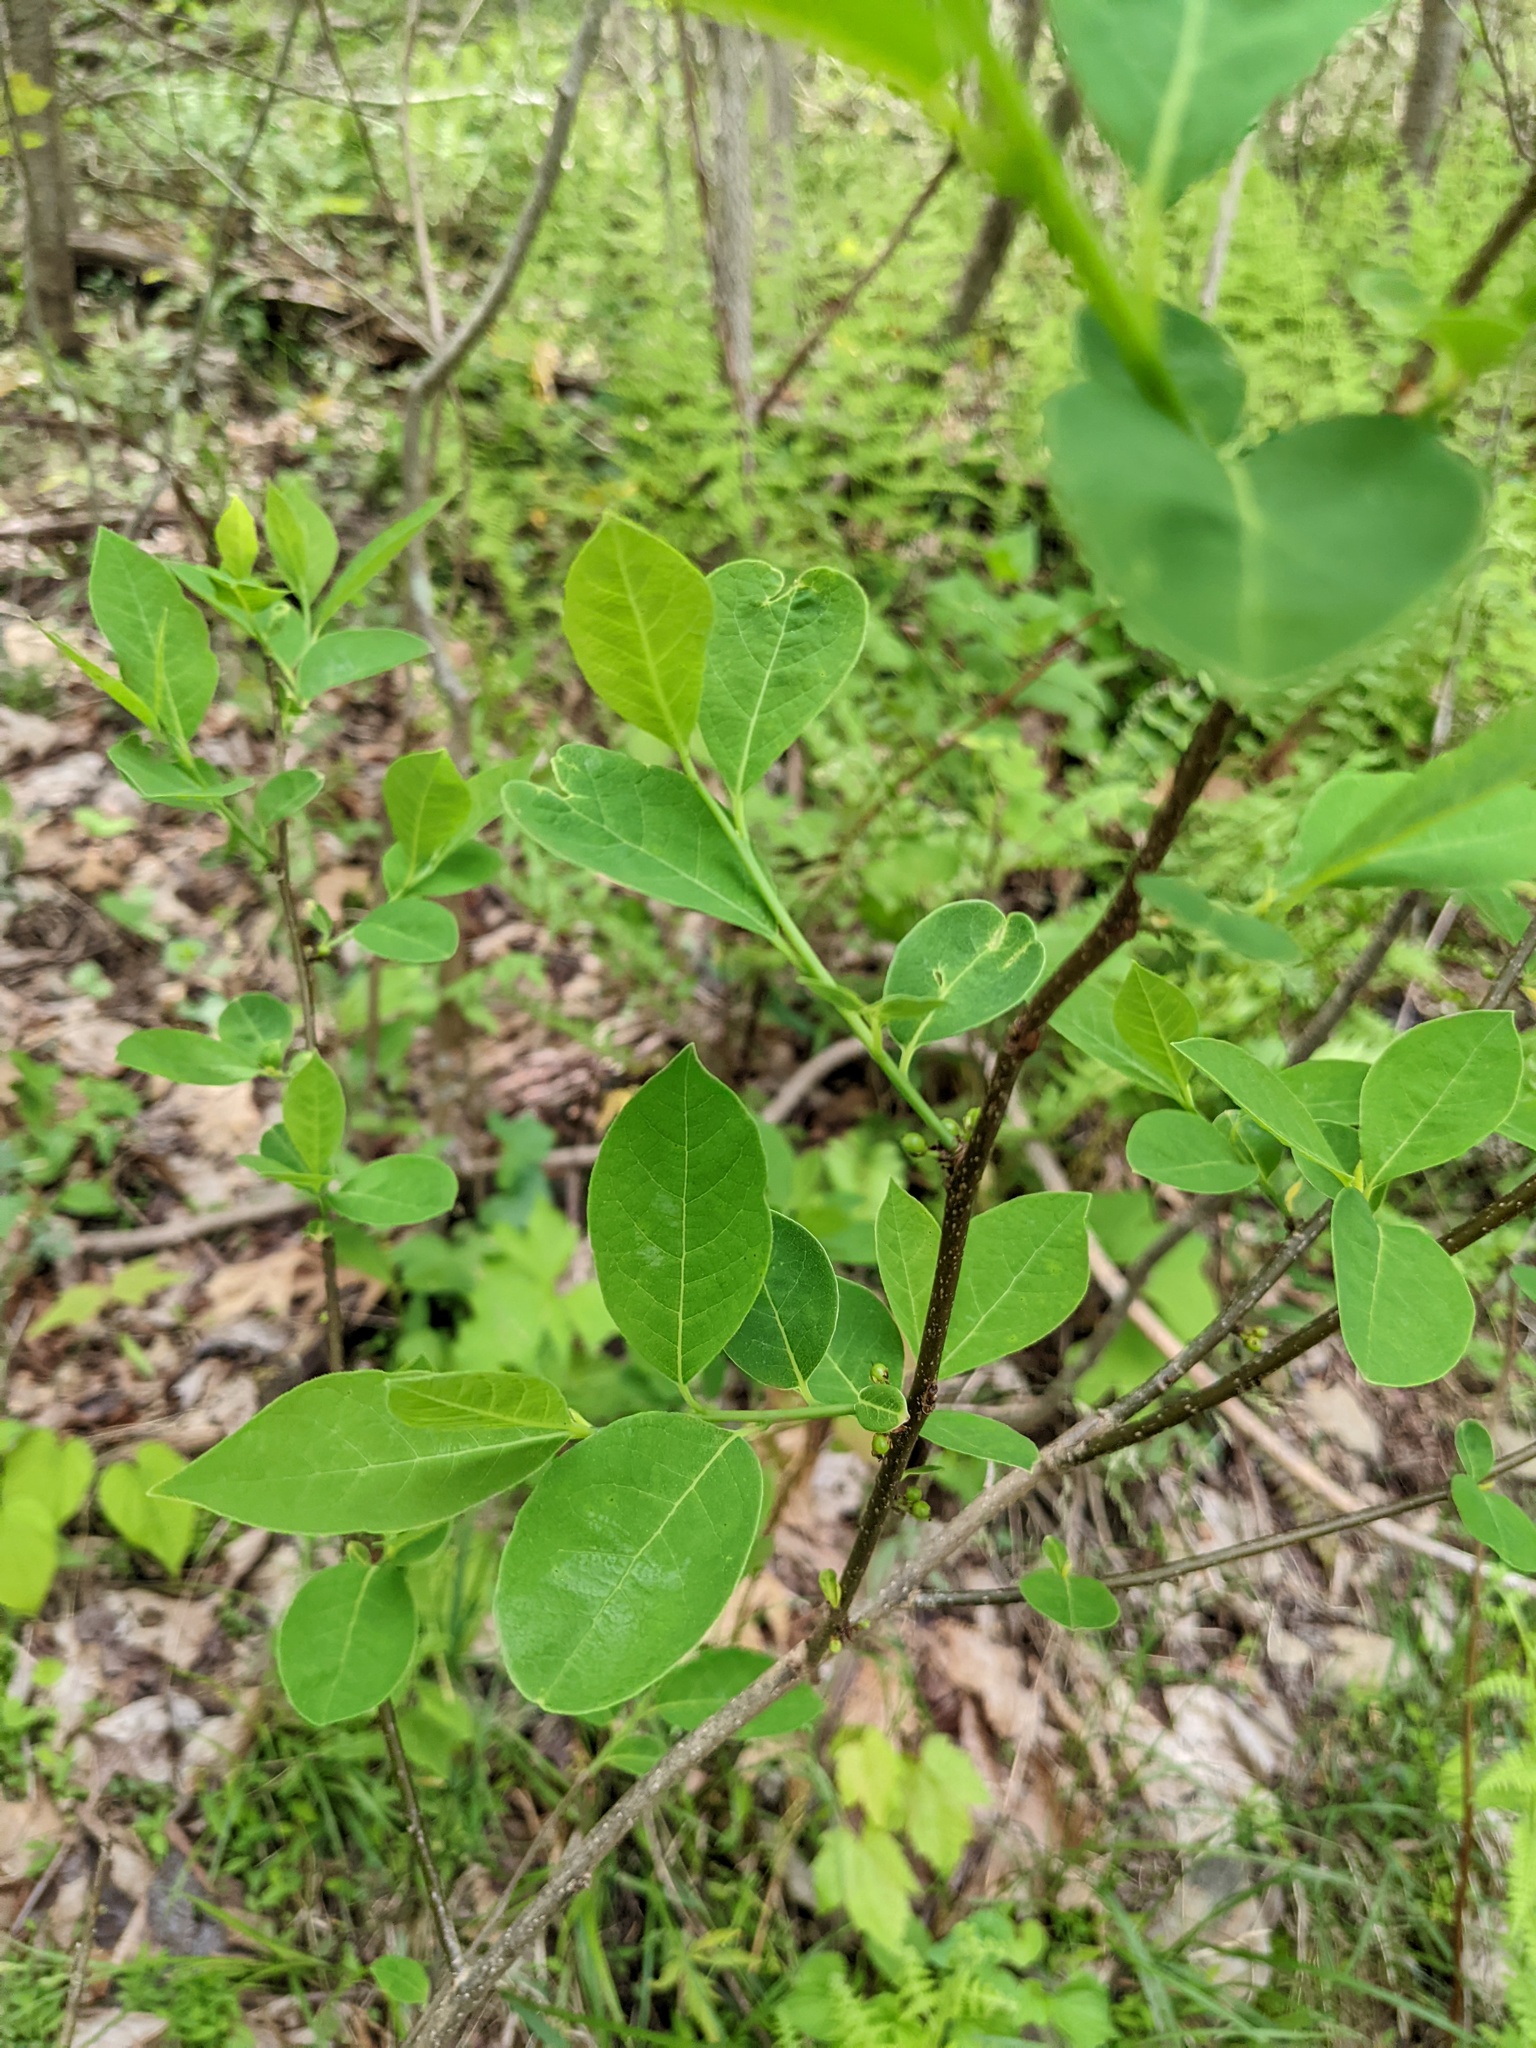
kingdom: Plantae
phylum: Tracheophyta
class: Magnoliopsida
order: Laurales
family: Lauraceae
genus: Lindera
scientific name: Lindera benzoin
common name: Spicebush
